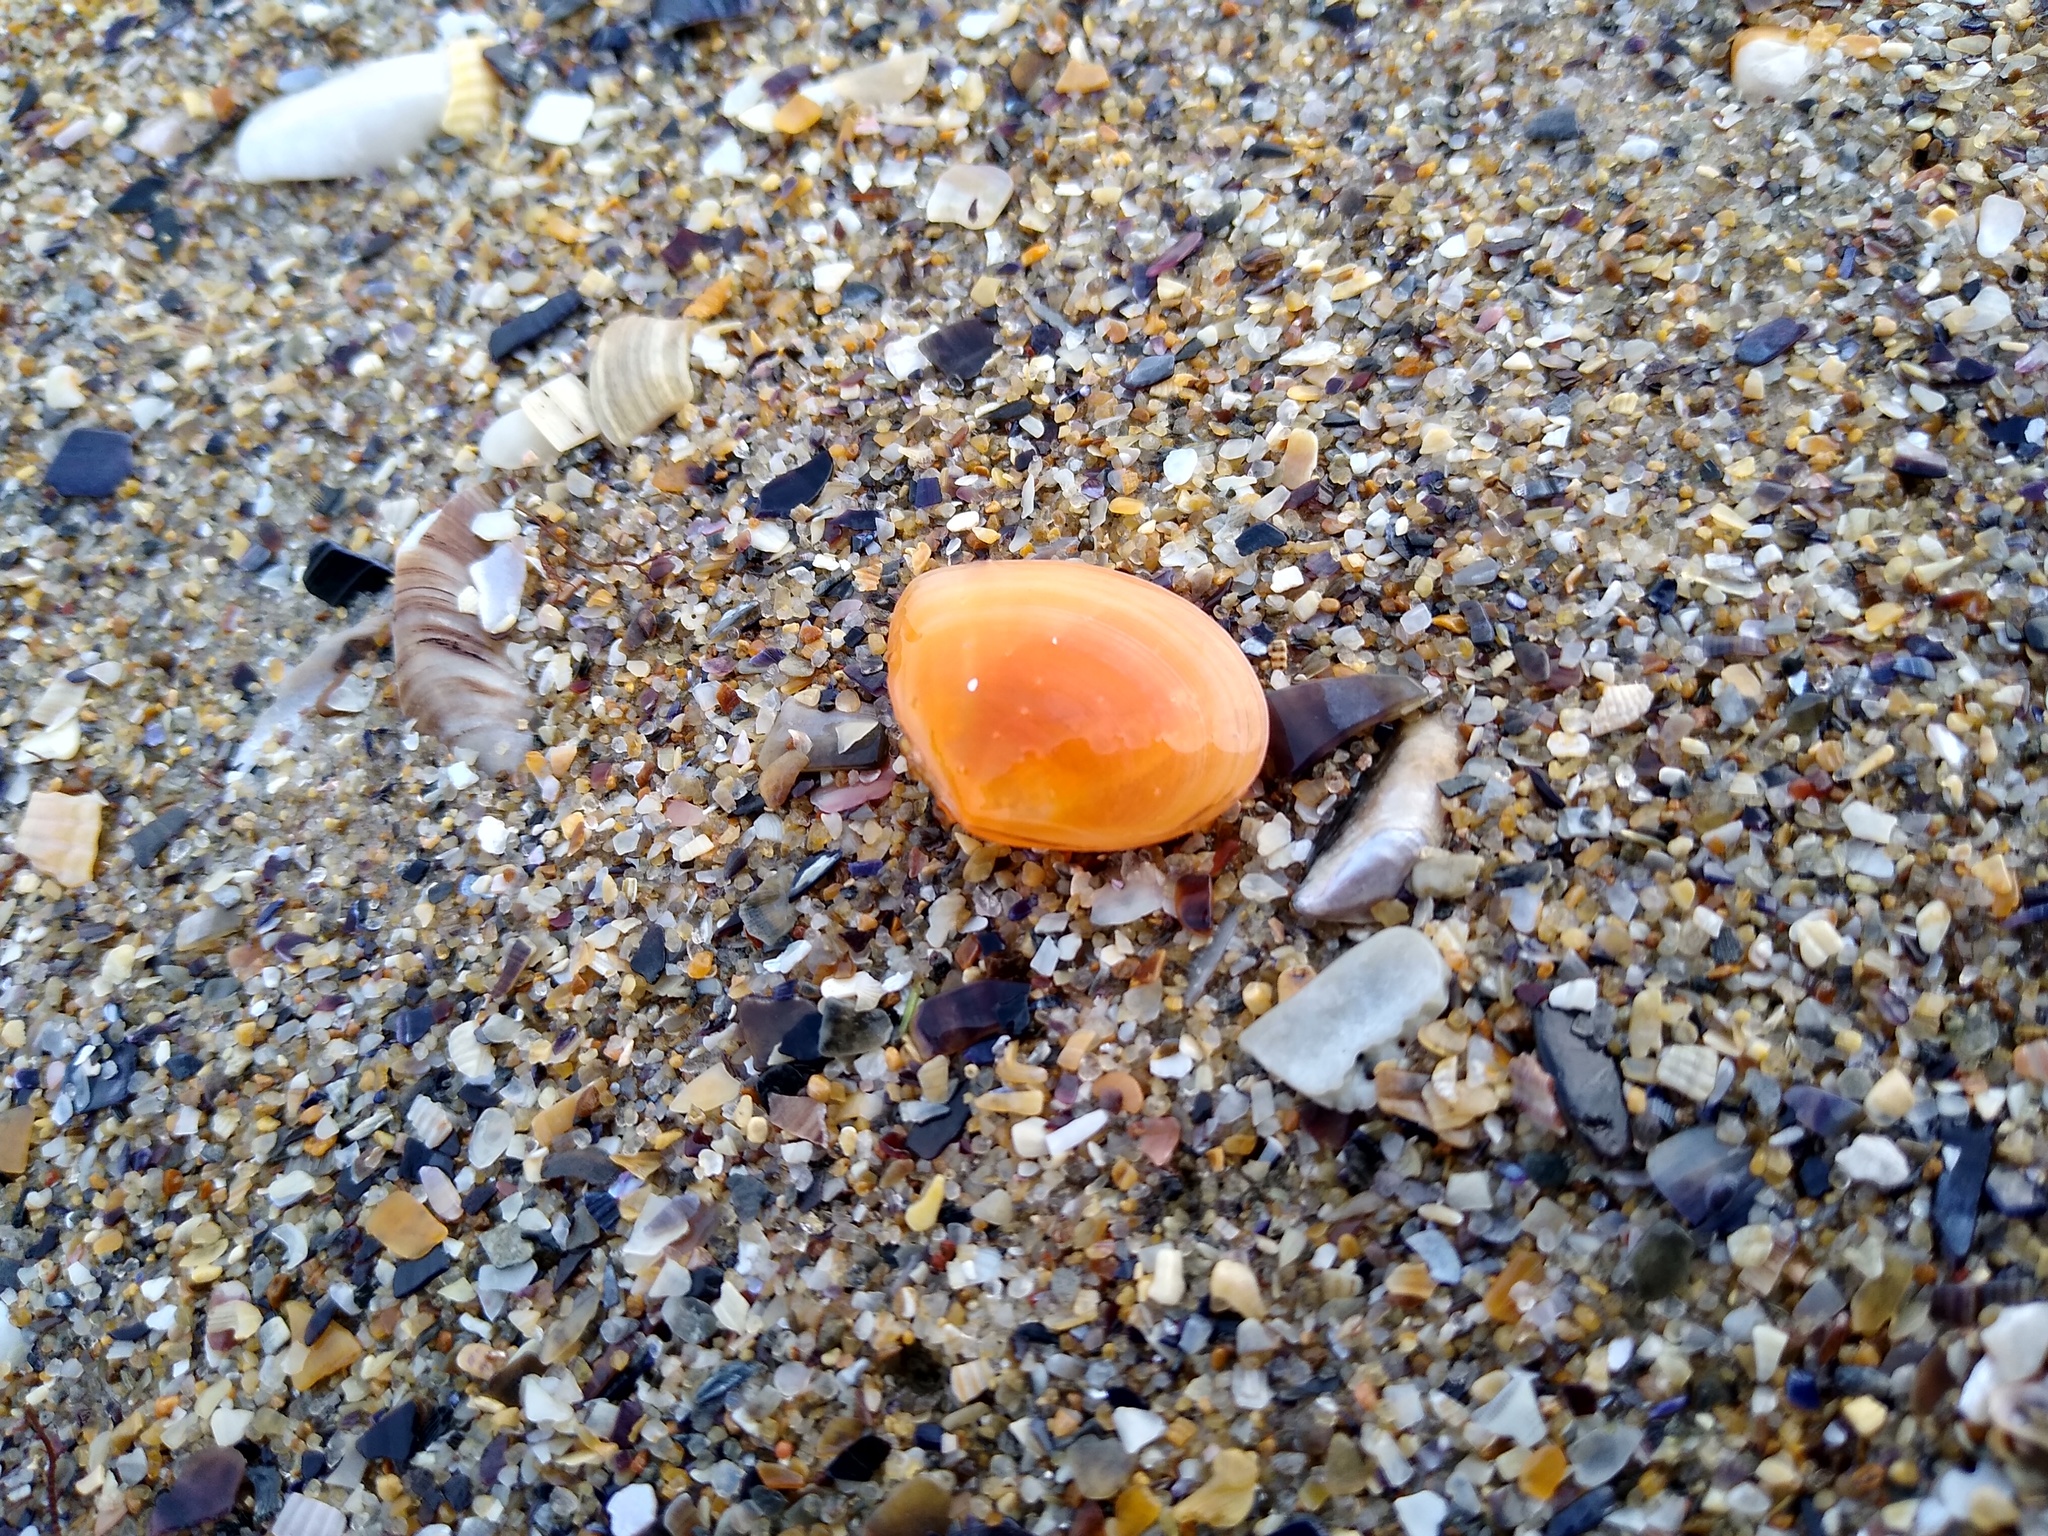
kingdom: Animalia
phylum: Mollusca
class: Bivalvia
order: Cardiida
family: Tellinidae
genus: Macomangulus
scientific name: Macomangulus tenuis
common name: Thin tellin
